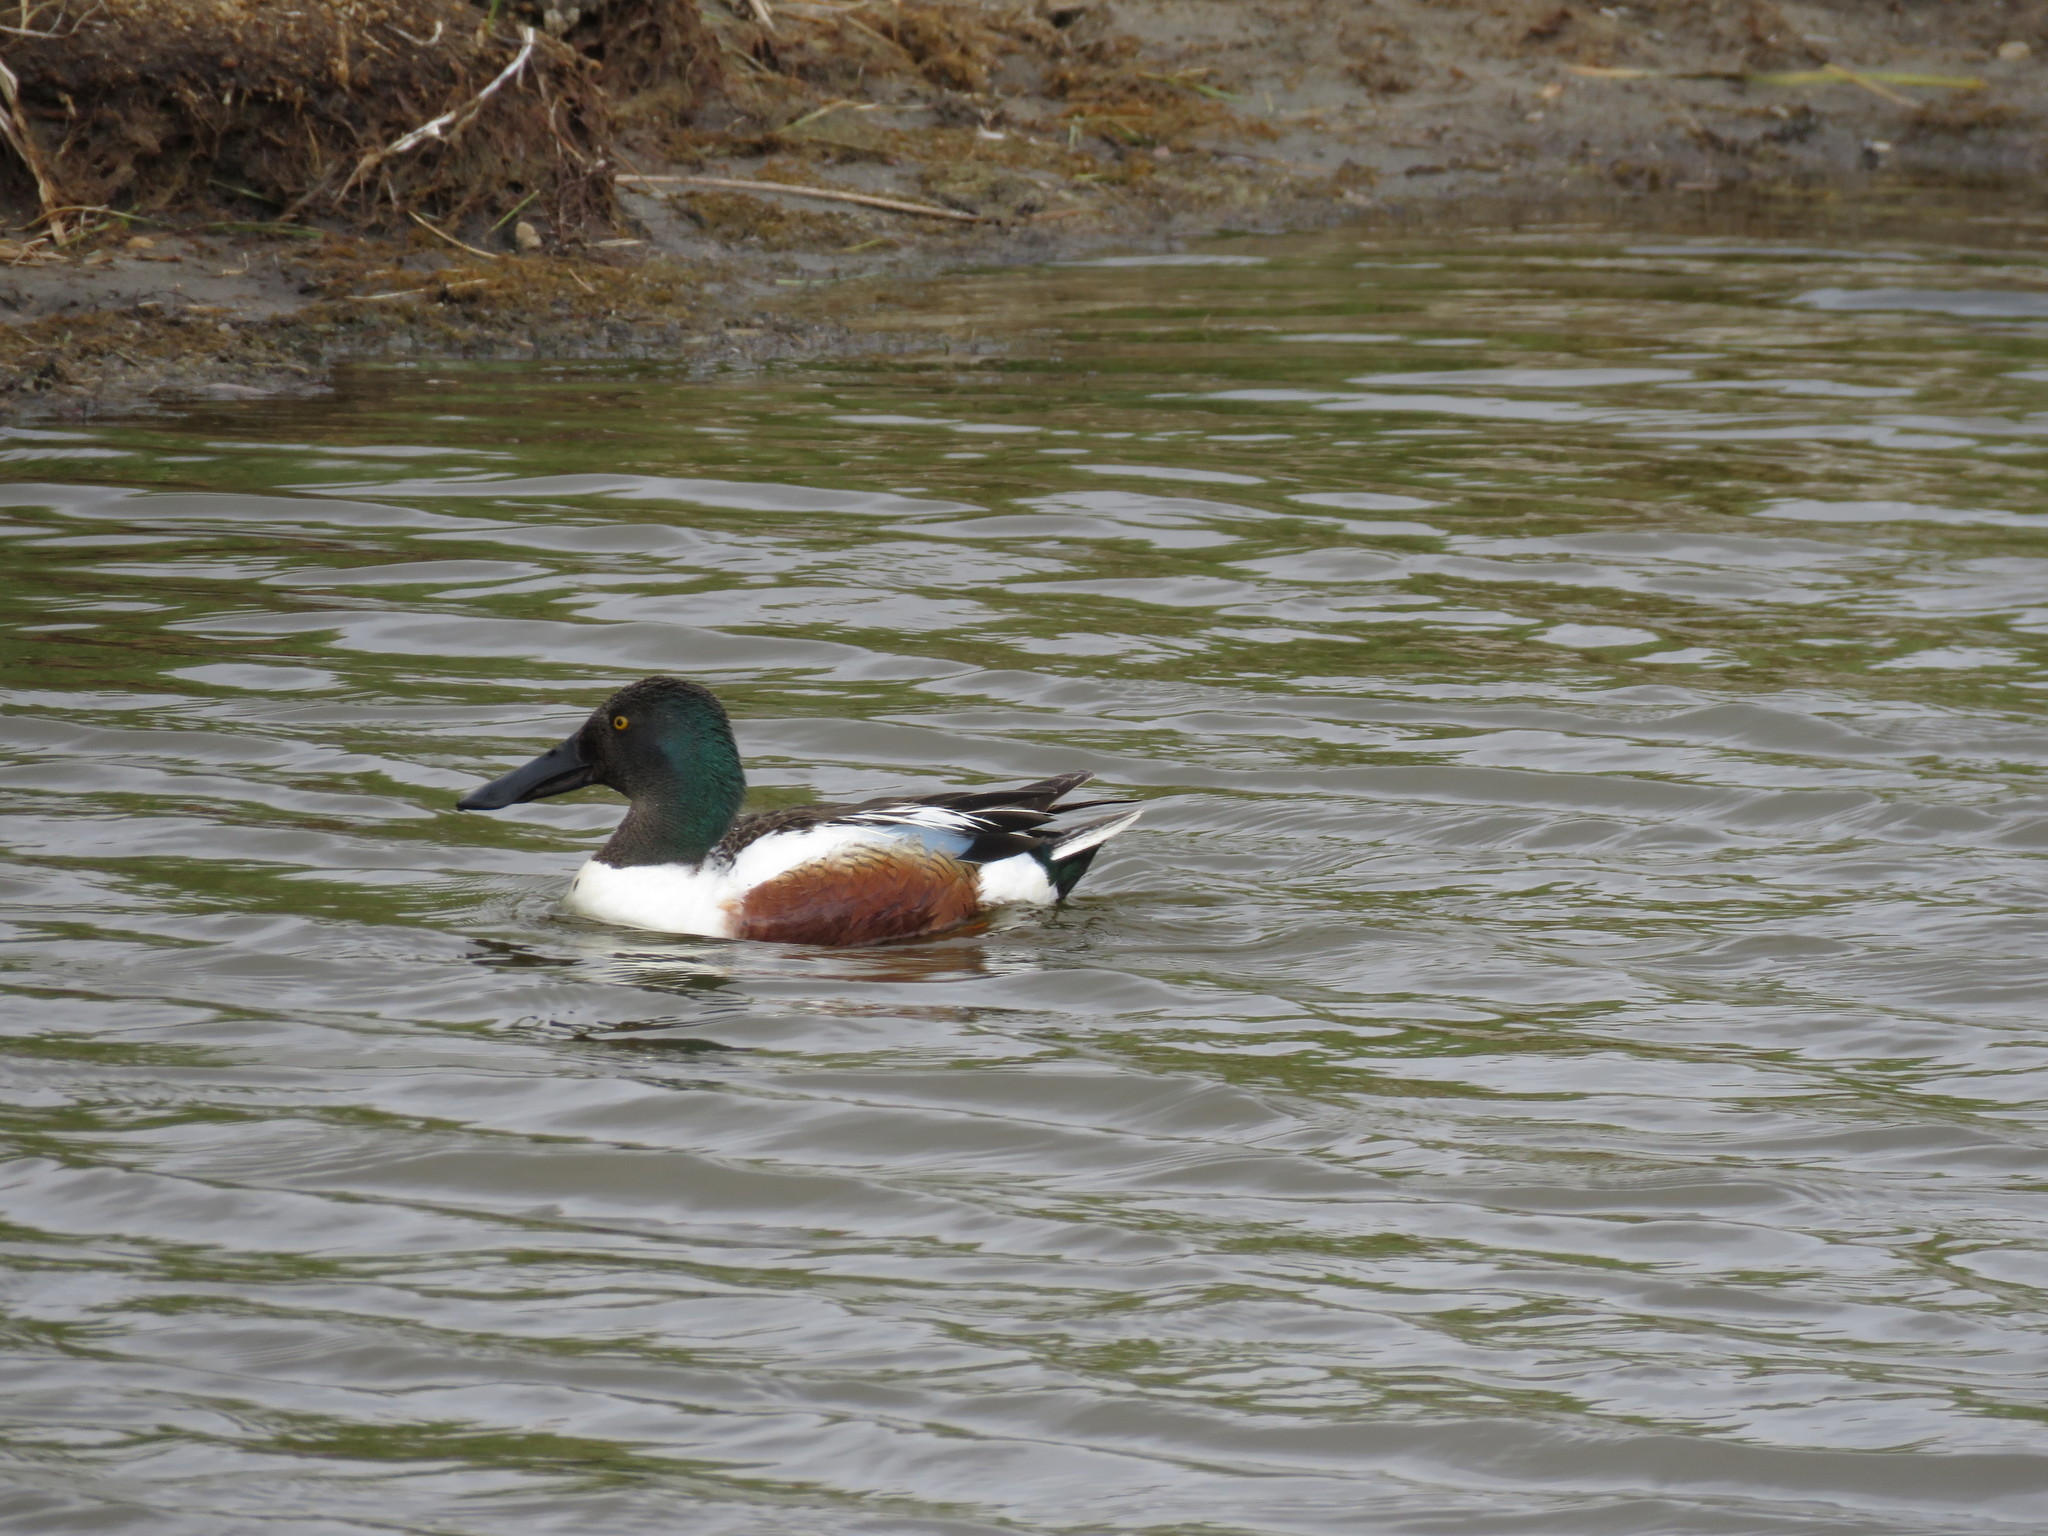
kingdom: Animalia
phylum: Chordata
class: Aves
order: Anseriformes
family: Anatidae
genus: Spatula
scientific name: Spatula clypeata
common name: Northern shoveler
